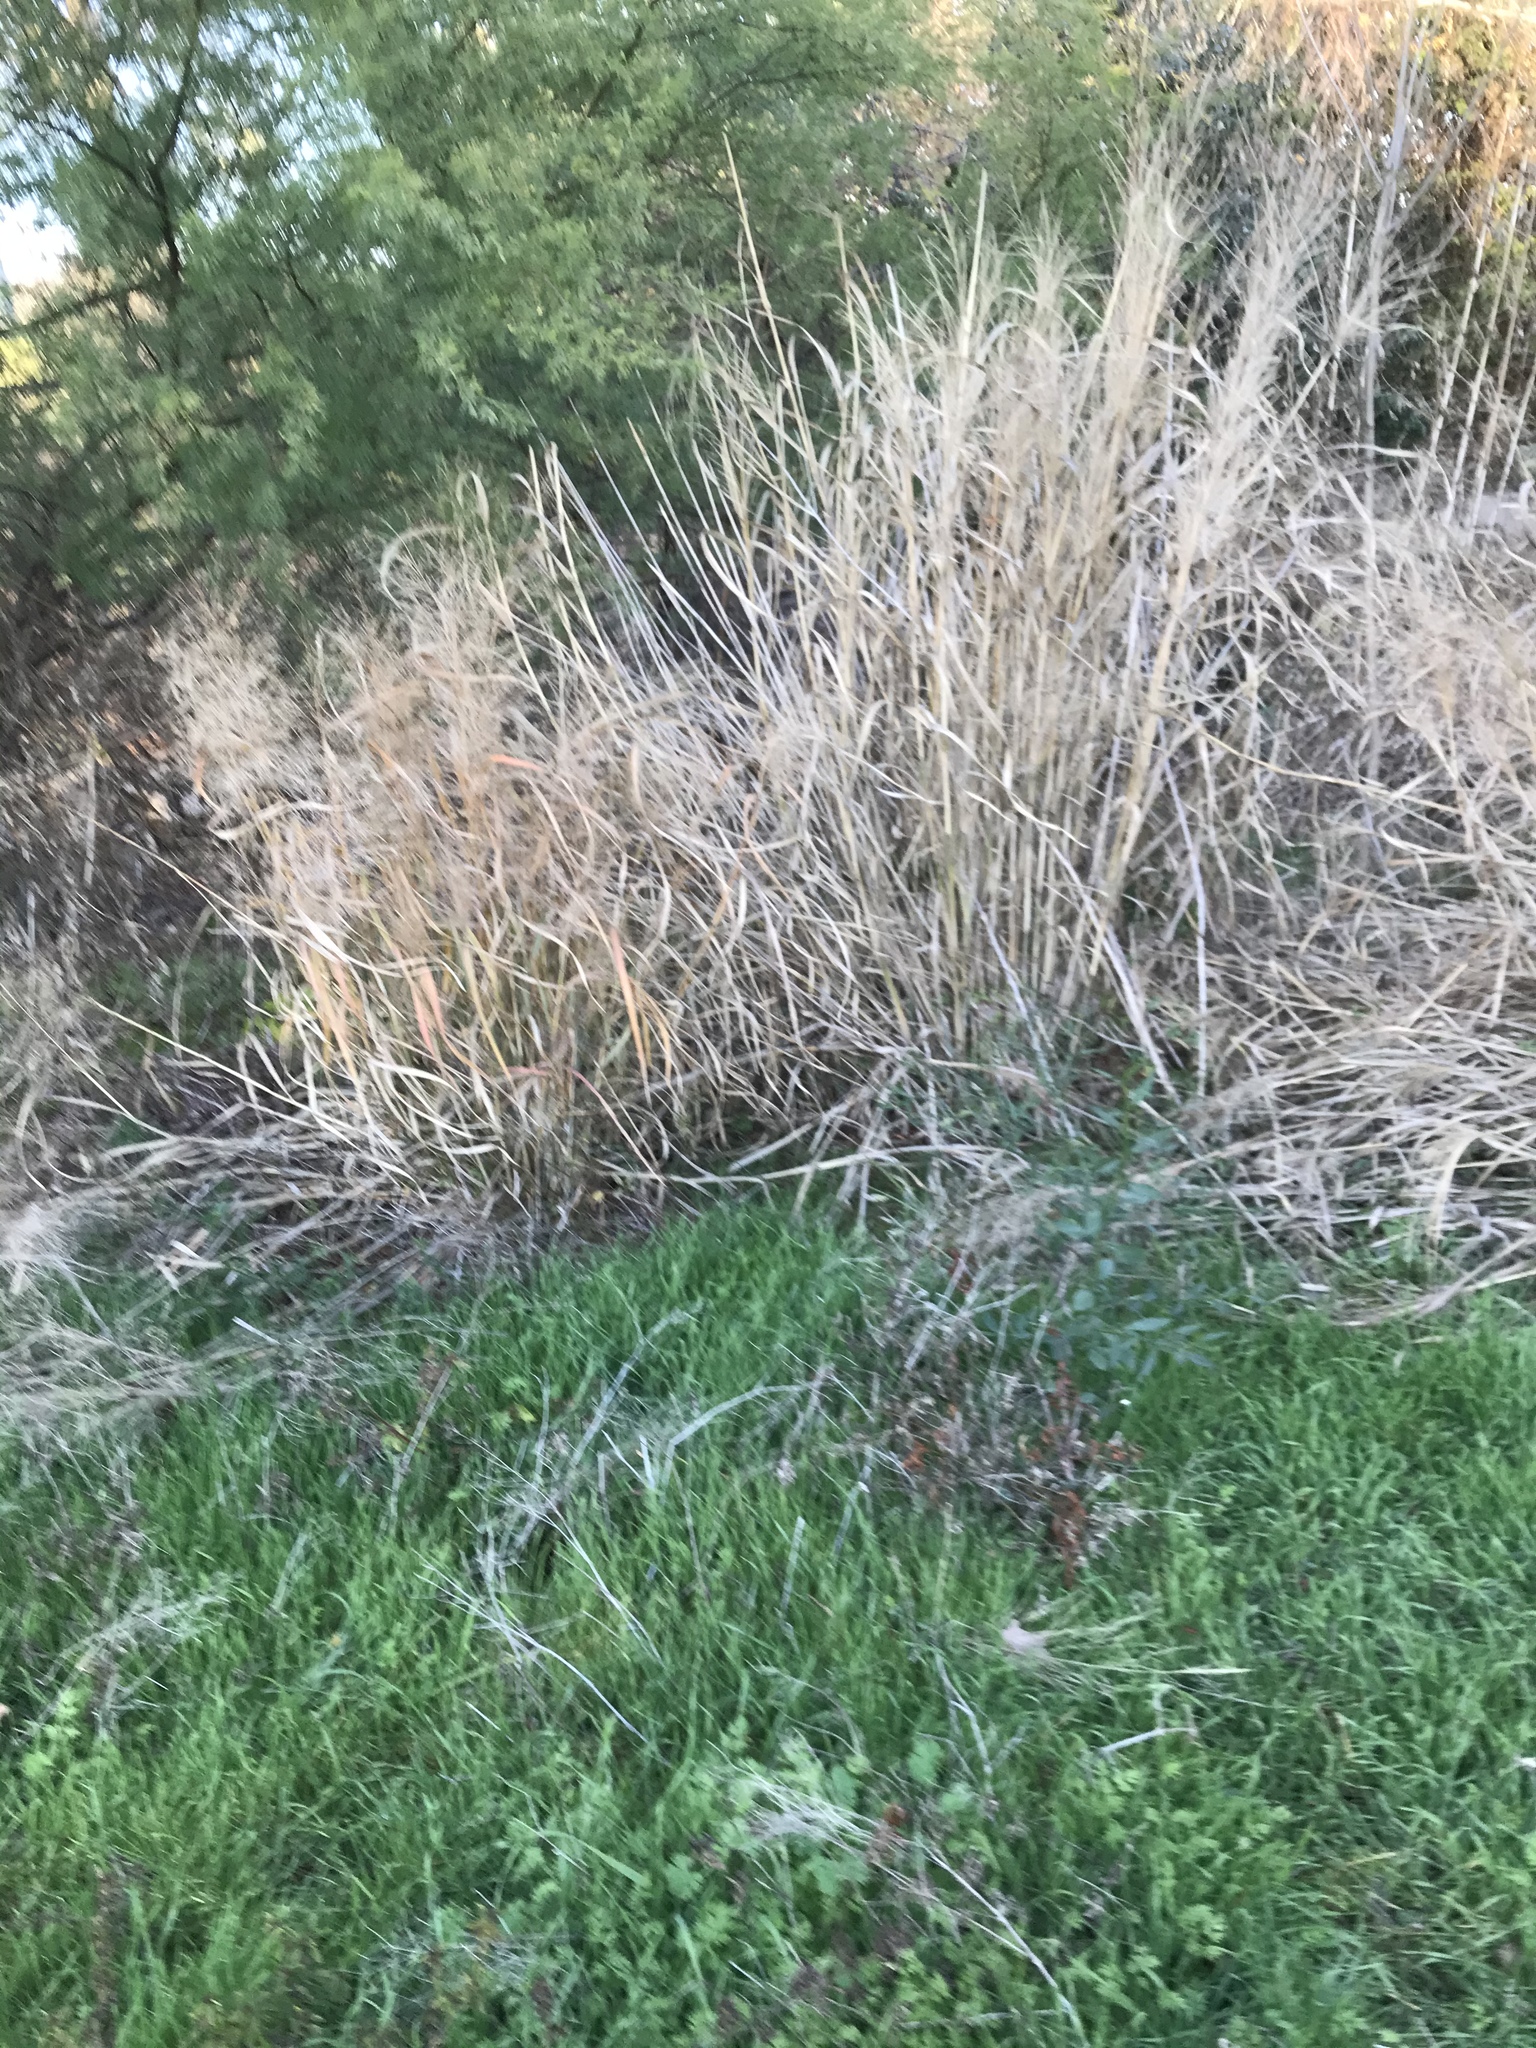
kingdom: Plantae
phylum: Tracheophyta
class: Liliopsida
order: Poales
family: Poaceae
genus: Panicum
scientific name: Panicum virgatum
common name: Switchgrass
